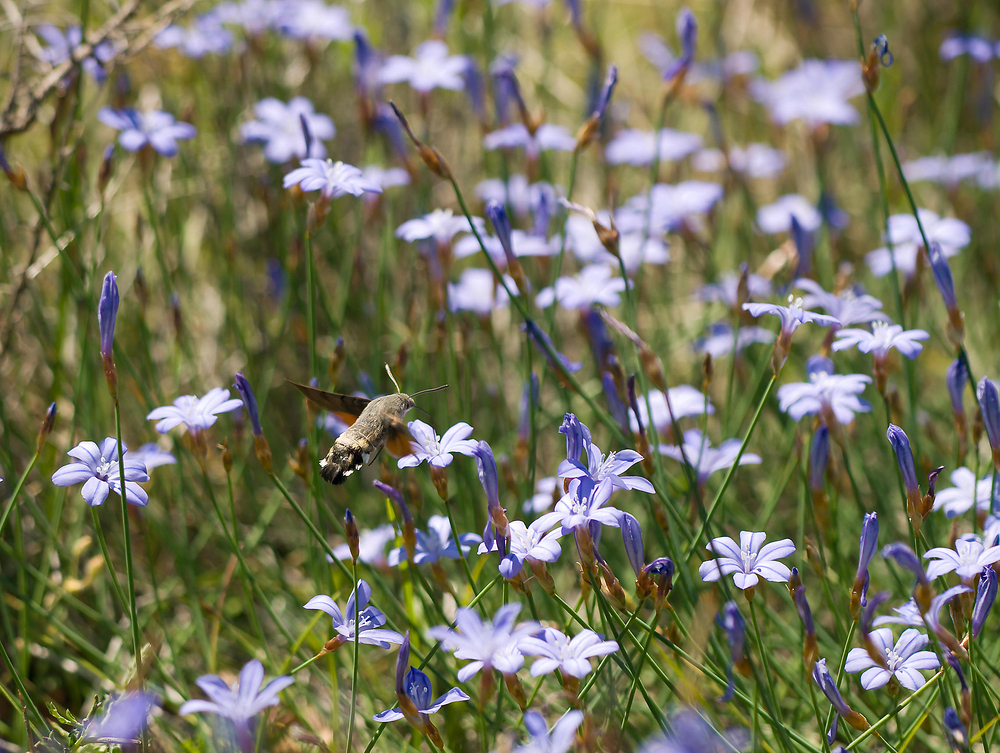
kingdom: Animalia
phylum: Arthropoda
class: Insecta
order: Lepidoptera
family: Sphingidae
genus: Macroglossum
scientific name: Macroglossum stellatarum
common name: Humming-bird hawk-moth
